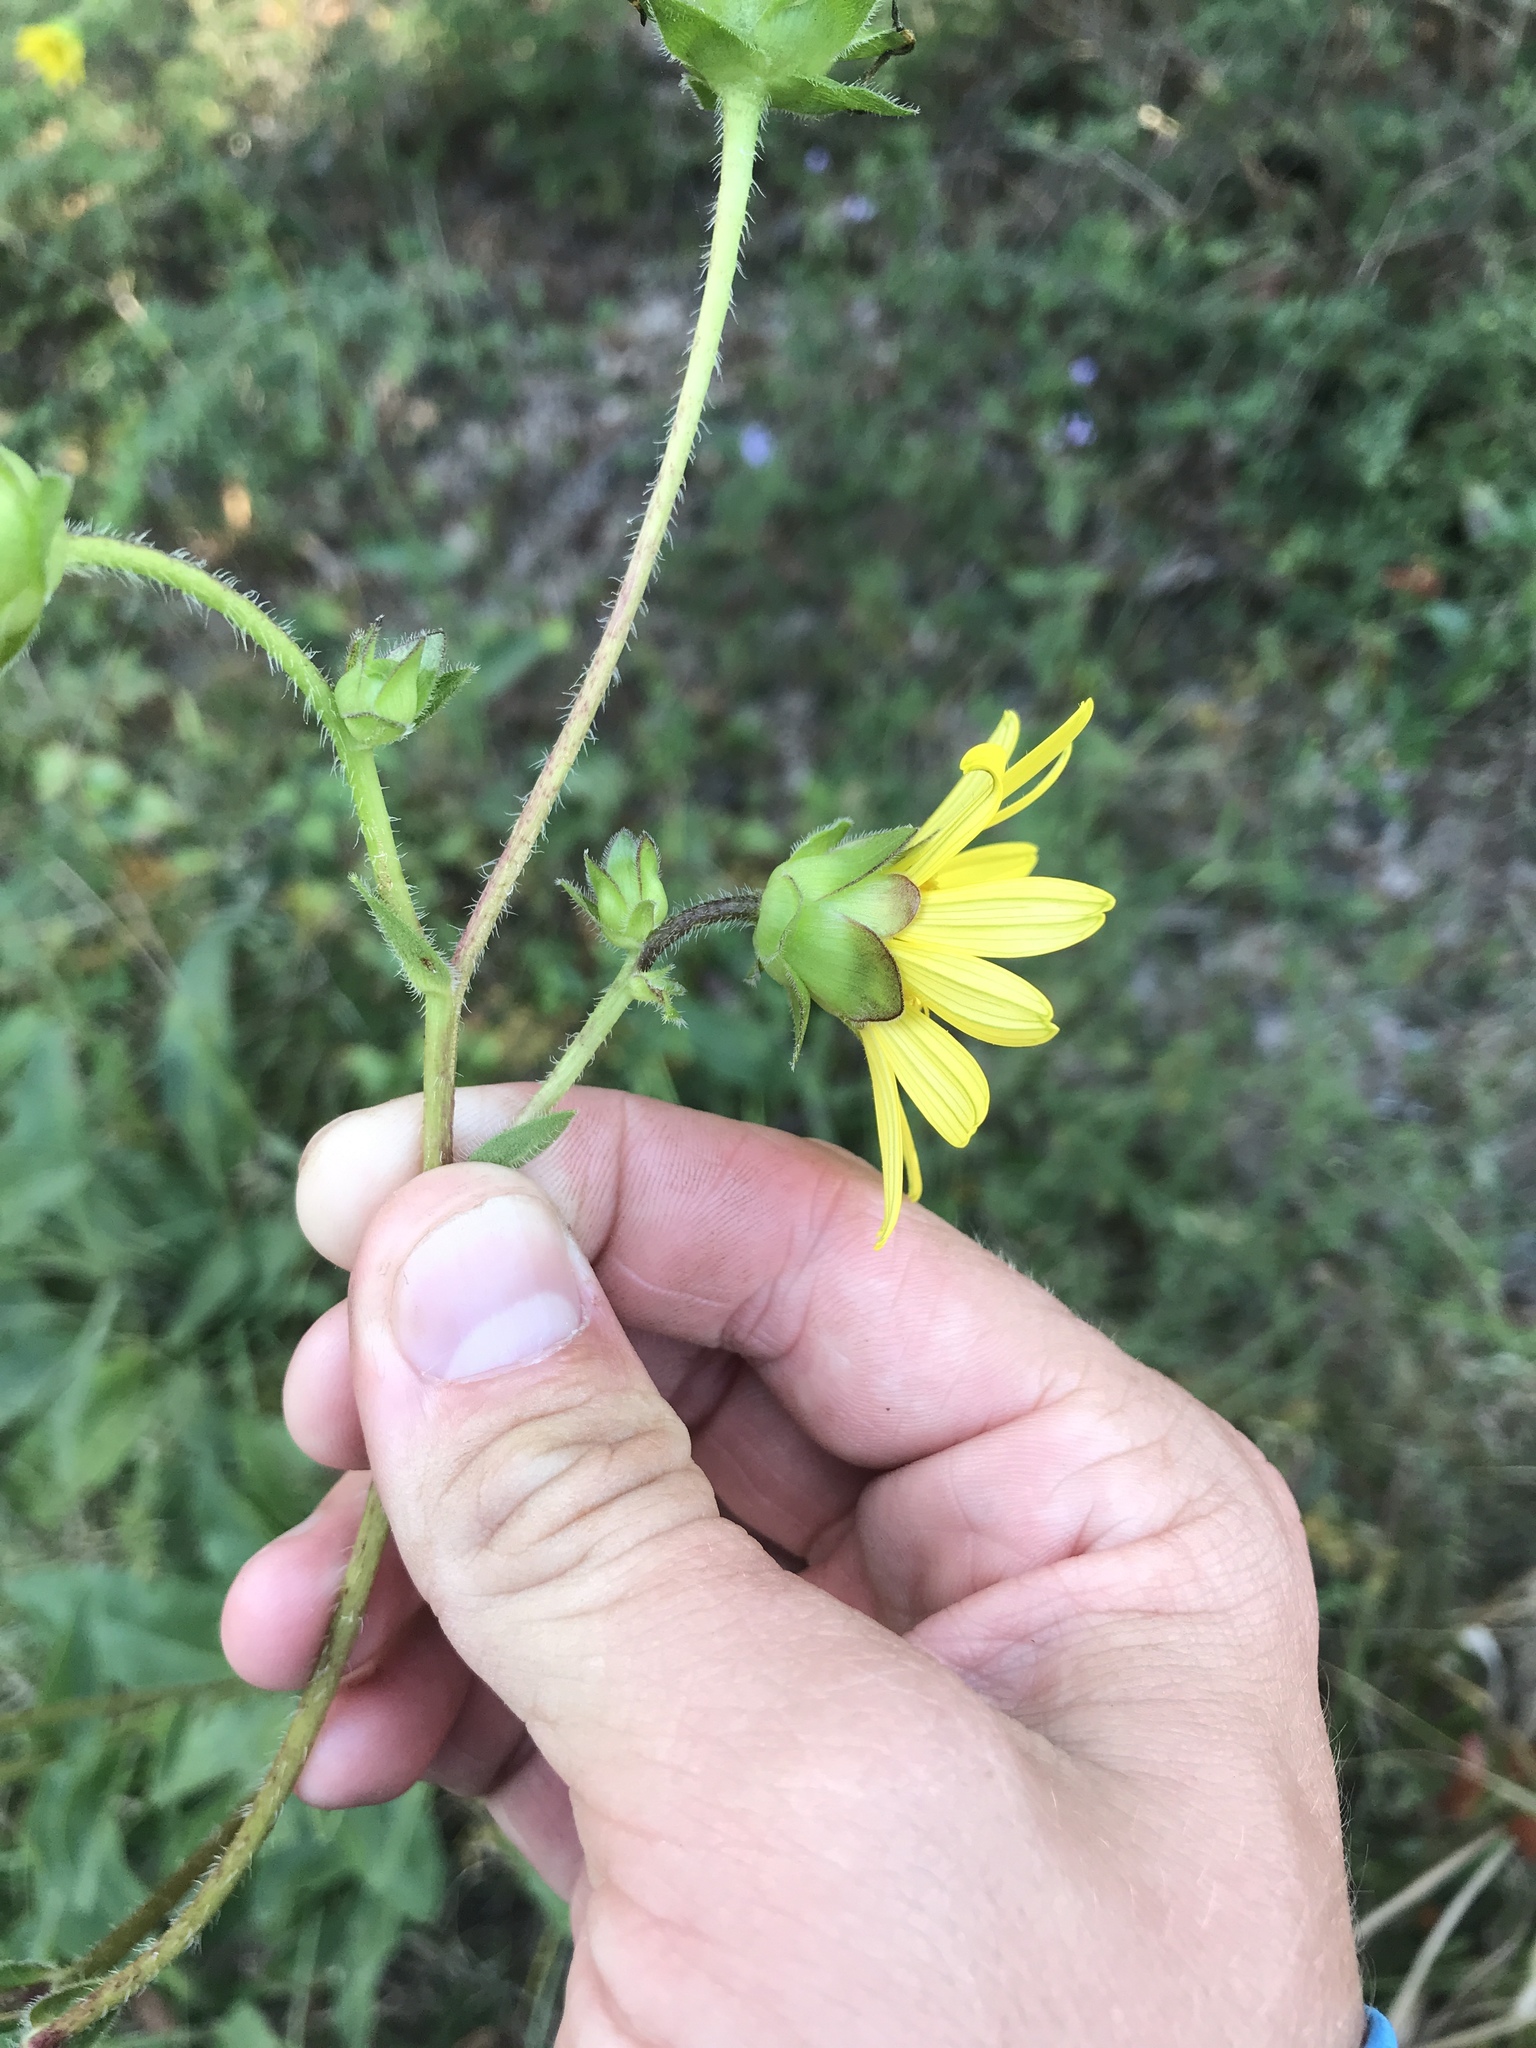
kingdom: Plantae
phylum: Tracheophyta
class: Magnoliopsida
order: Asterales
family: Asteraceae
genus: Silphium
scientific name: Silphium radula
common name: Roughleaf rosinweed
